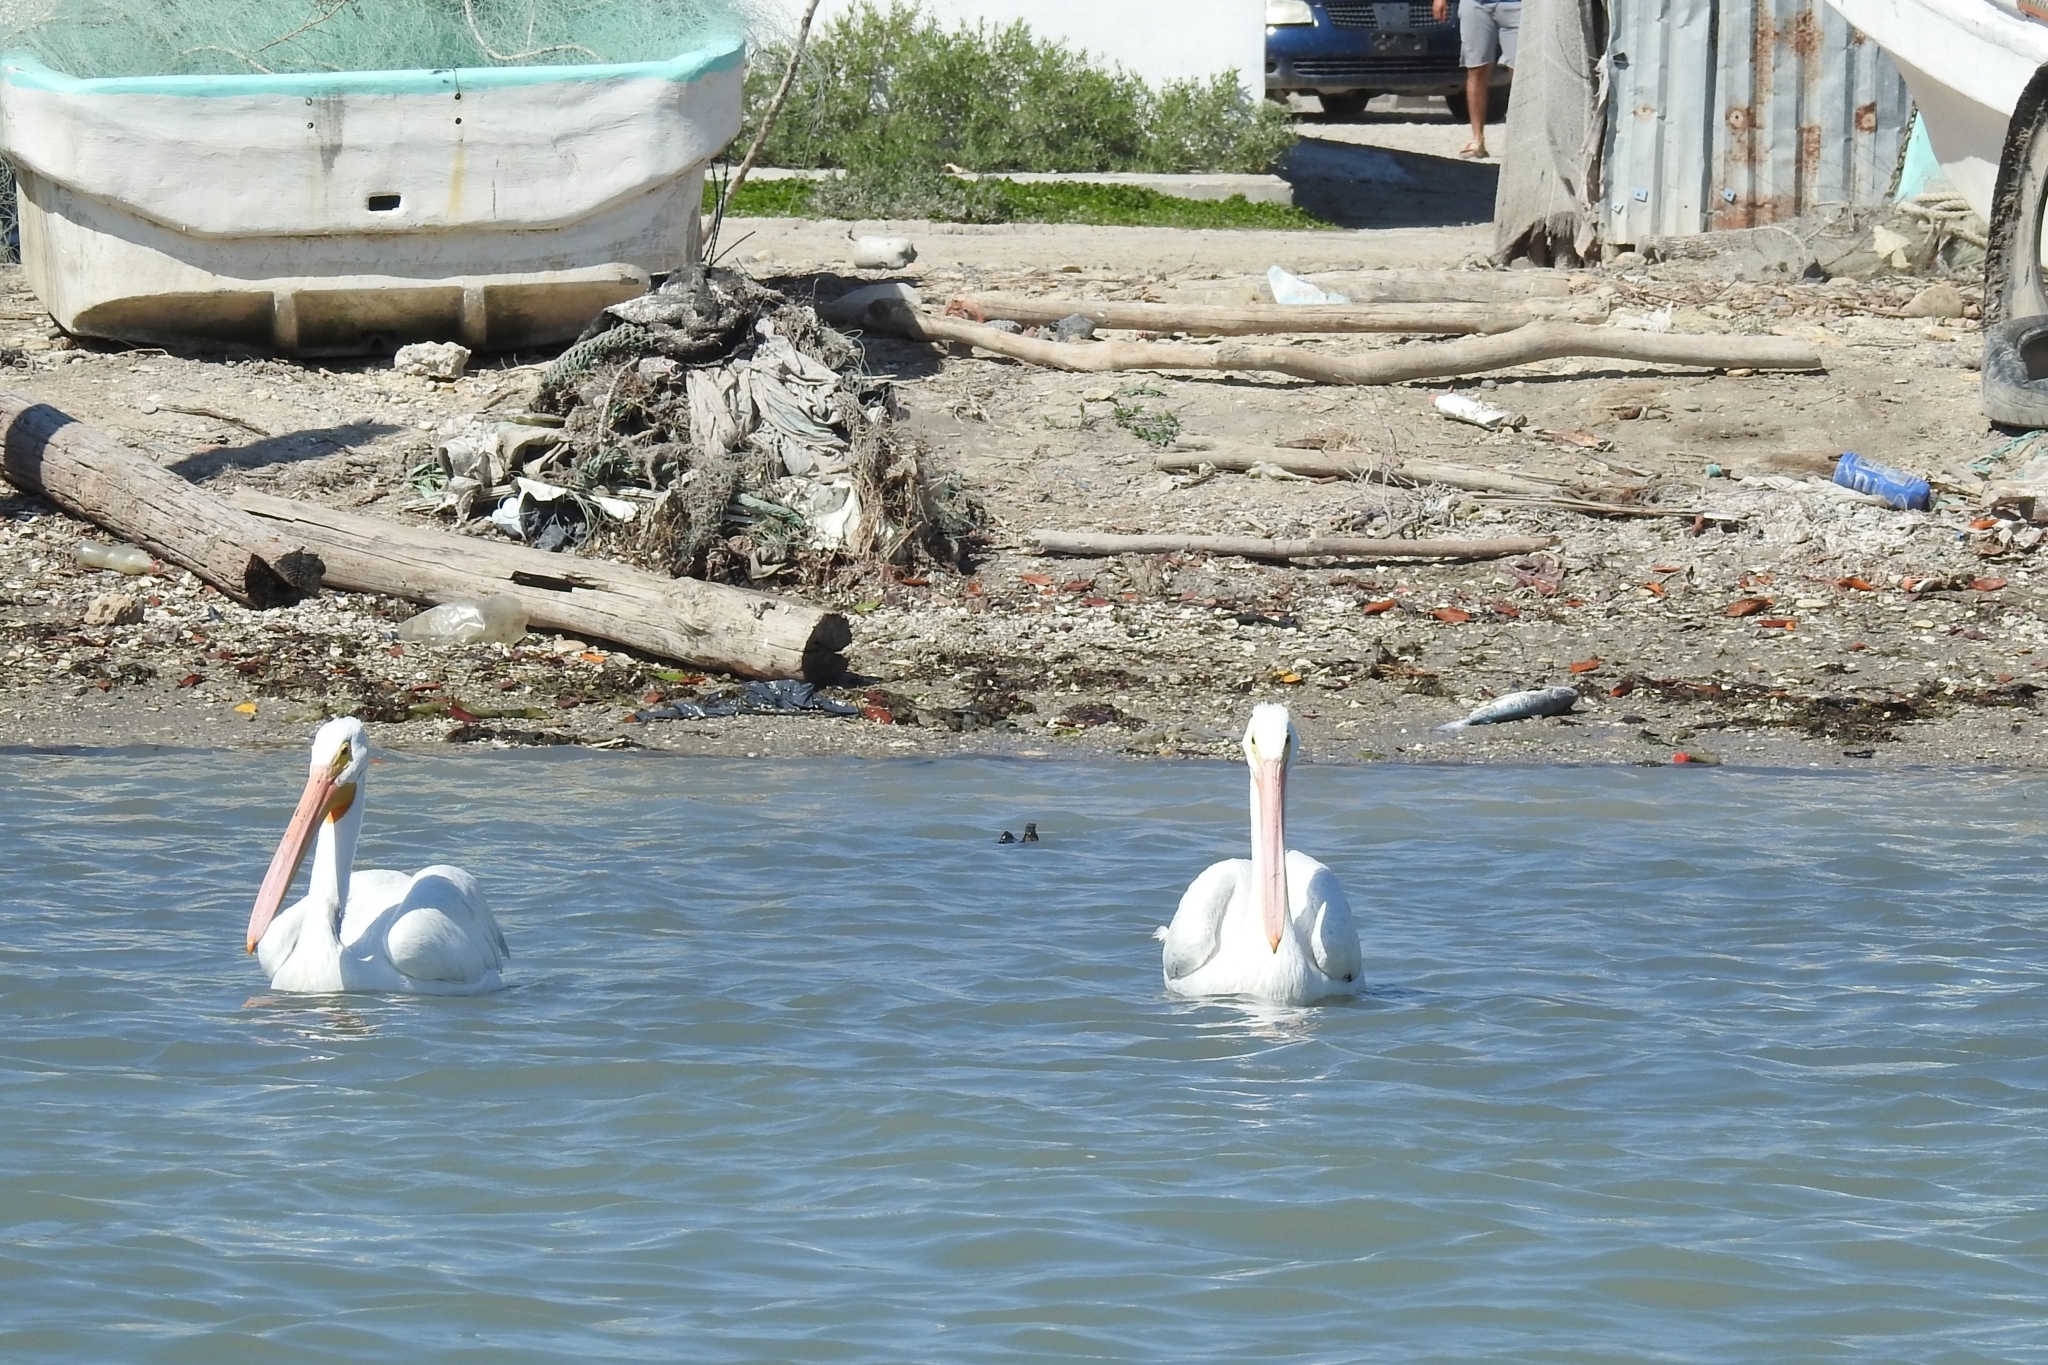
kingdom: Animalia
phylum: Chordata
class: Aves
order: Pelecaniformes
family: Pelecanidae
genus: Pelecanus
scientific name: Pelecanus erythrorhynchos
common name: American white pelican
